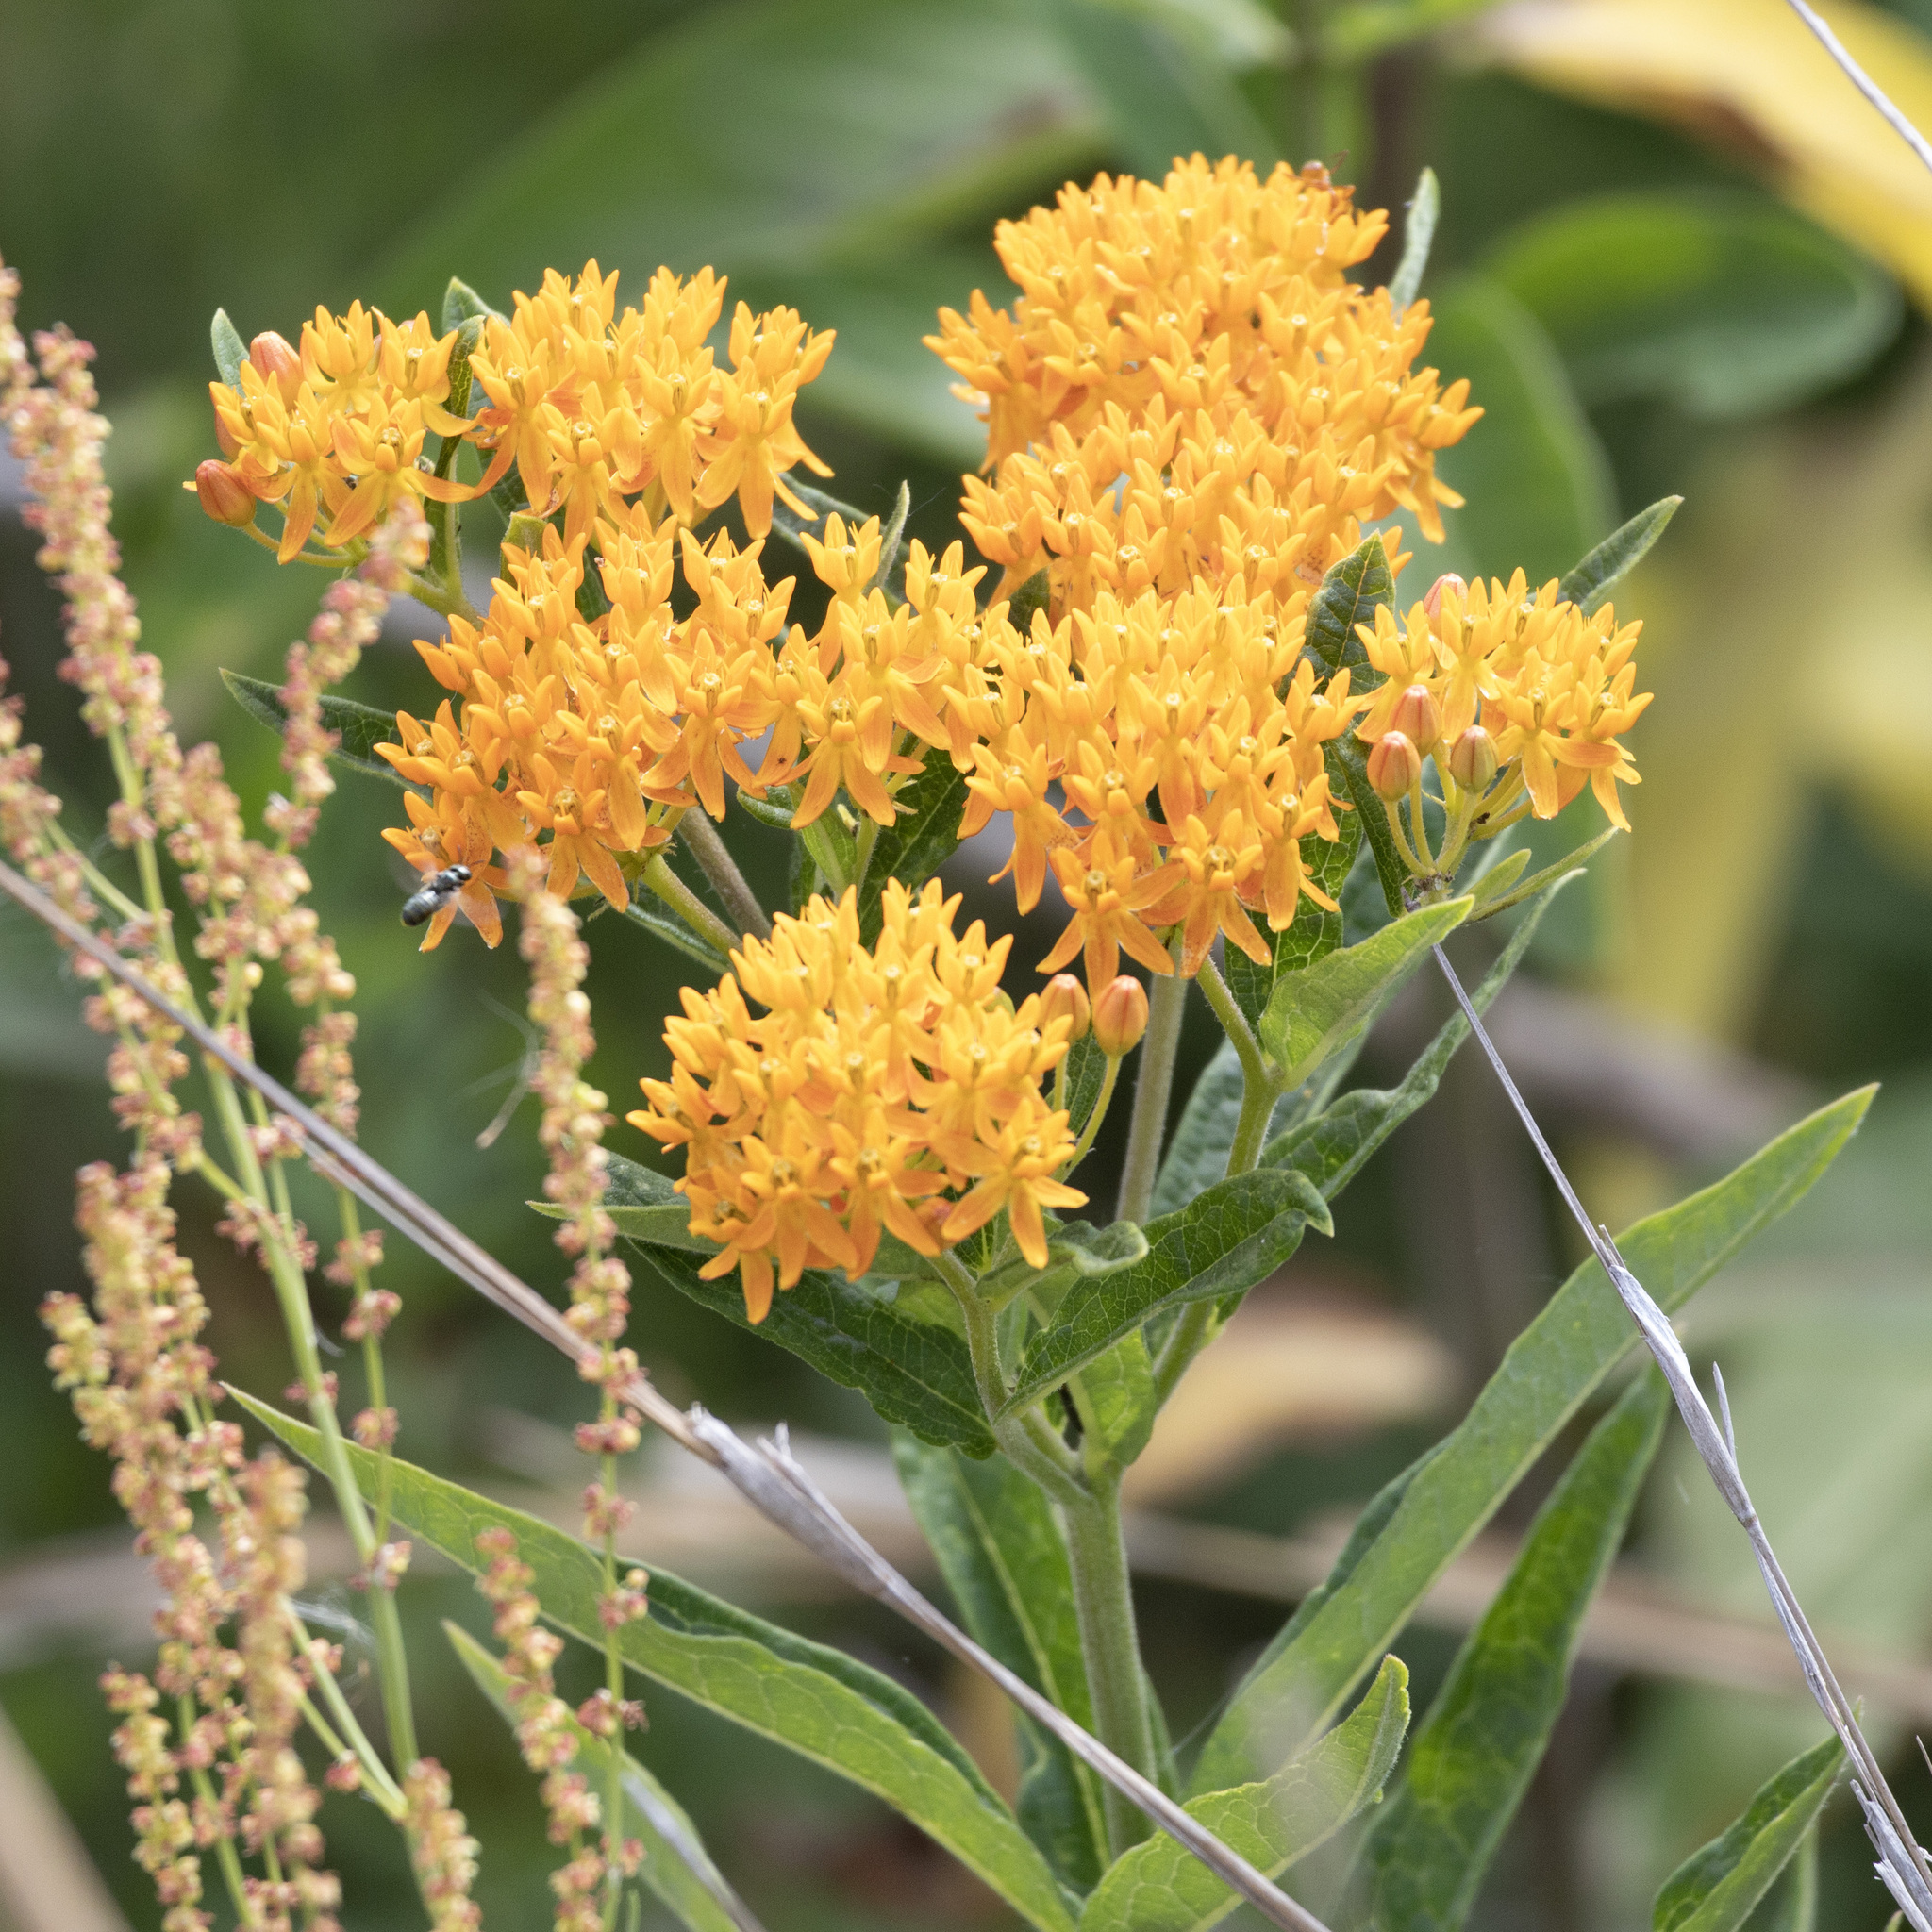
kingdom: Plantae
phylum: Tracheophyta
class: Magnoliopsida
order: Gentianales
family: Apocynaceae
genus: Asclepias
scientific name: Asclepias tuberosa
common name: Butterfly milkweed
